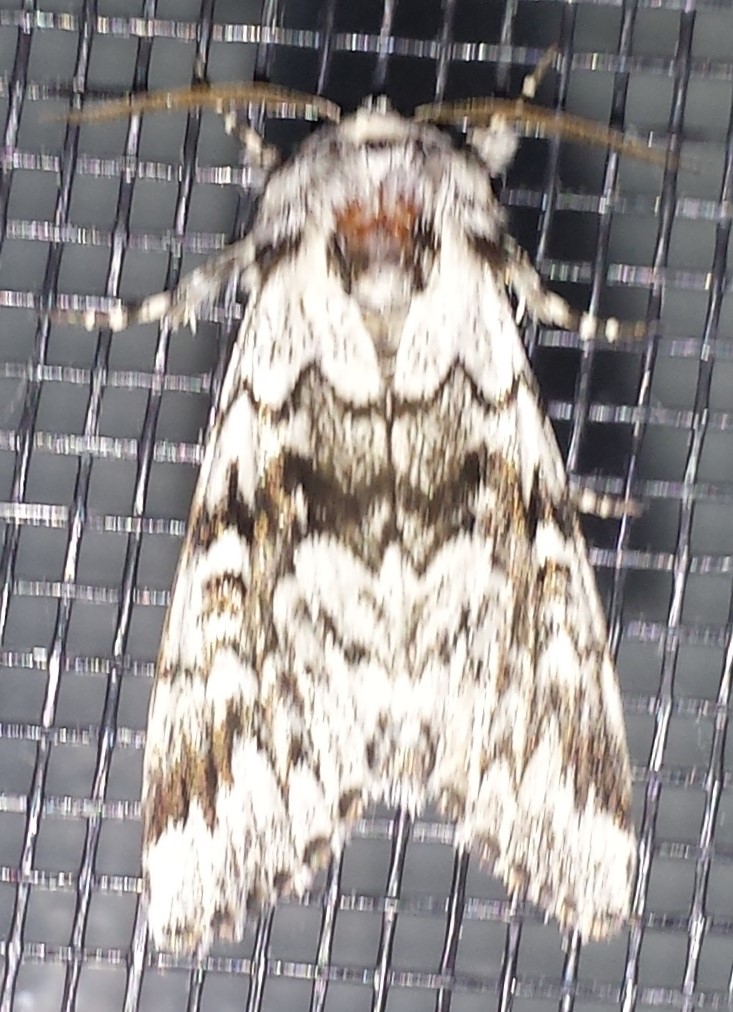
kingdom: Animalia
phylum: Arthropoda
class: Insecta
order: Lepidoptera
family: Noctuidae
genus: Panthea
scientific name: Panthea acronyctoides
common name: Black zigzag moth
